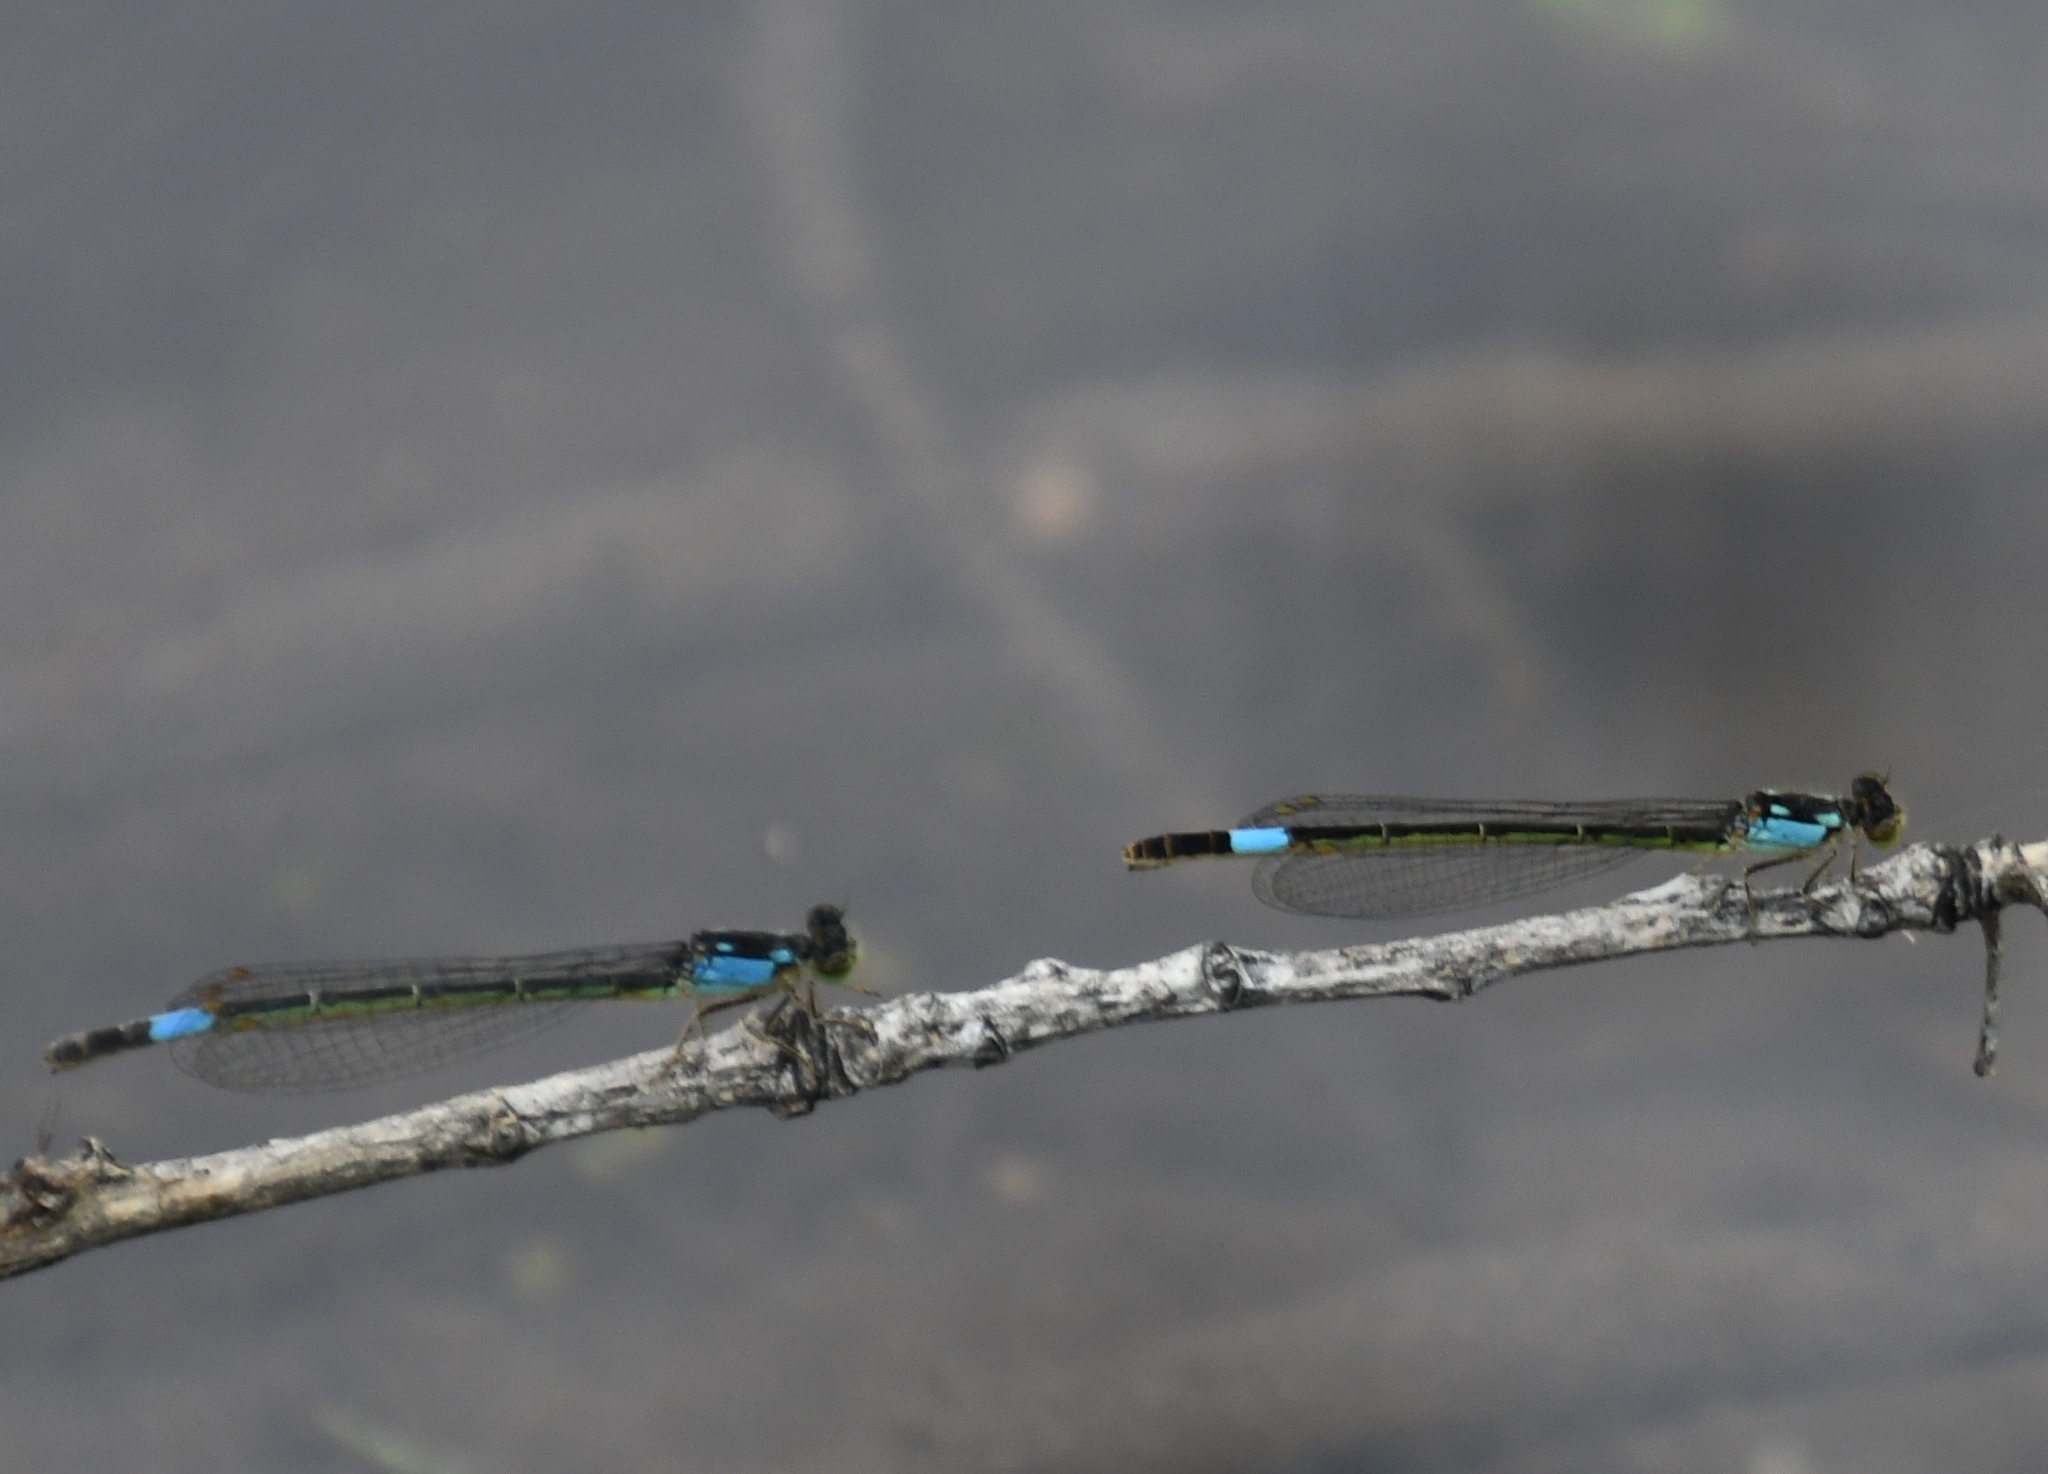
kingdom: Animalia
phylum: Arthropoda
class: Insecta
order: Odonata
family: Coenagrionidae
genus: Hesperagrion
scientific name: Hesperagrion heterodoxum
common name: Painted damsel
